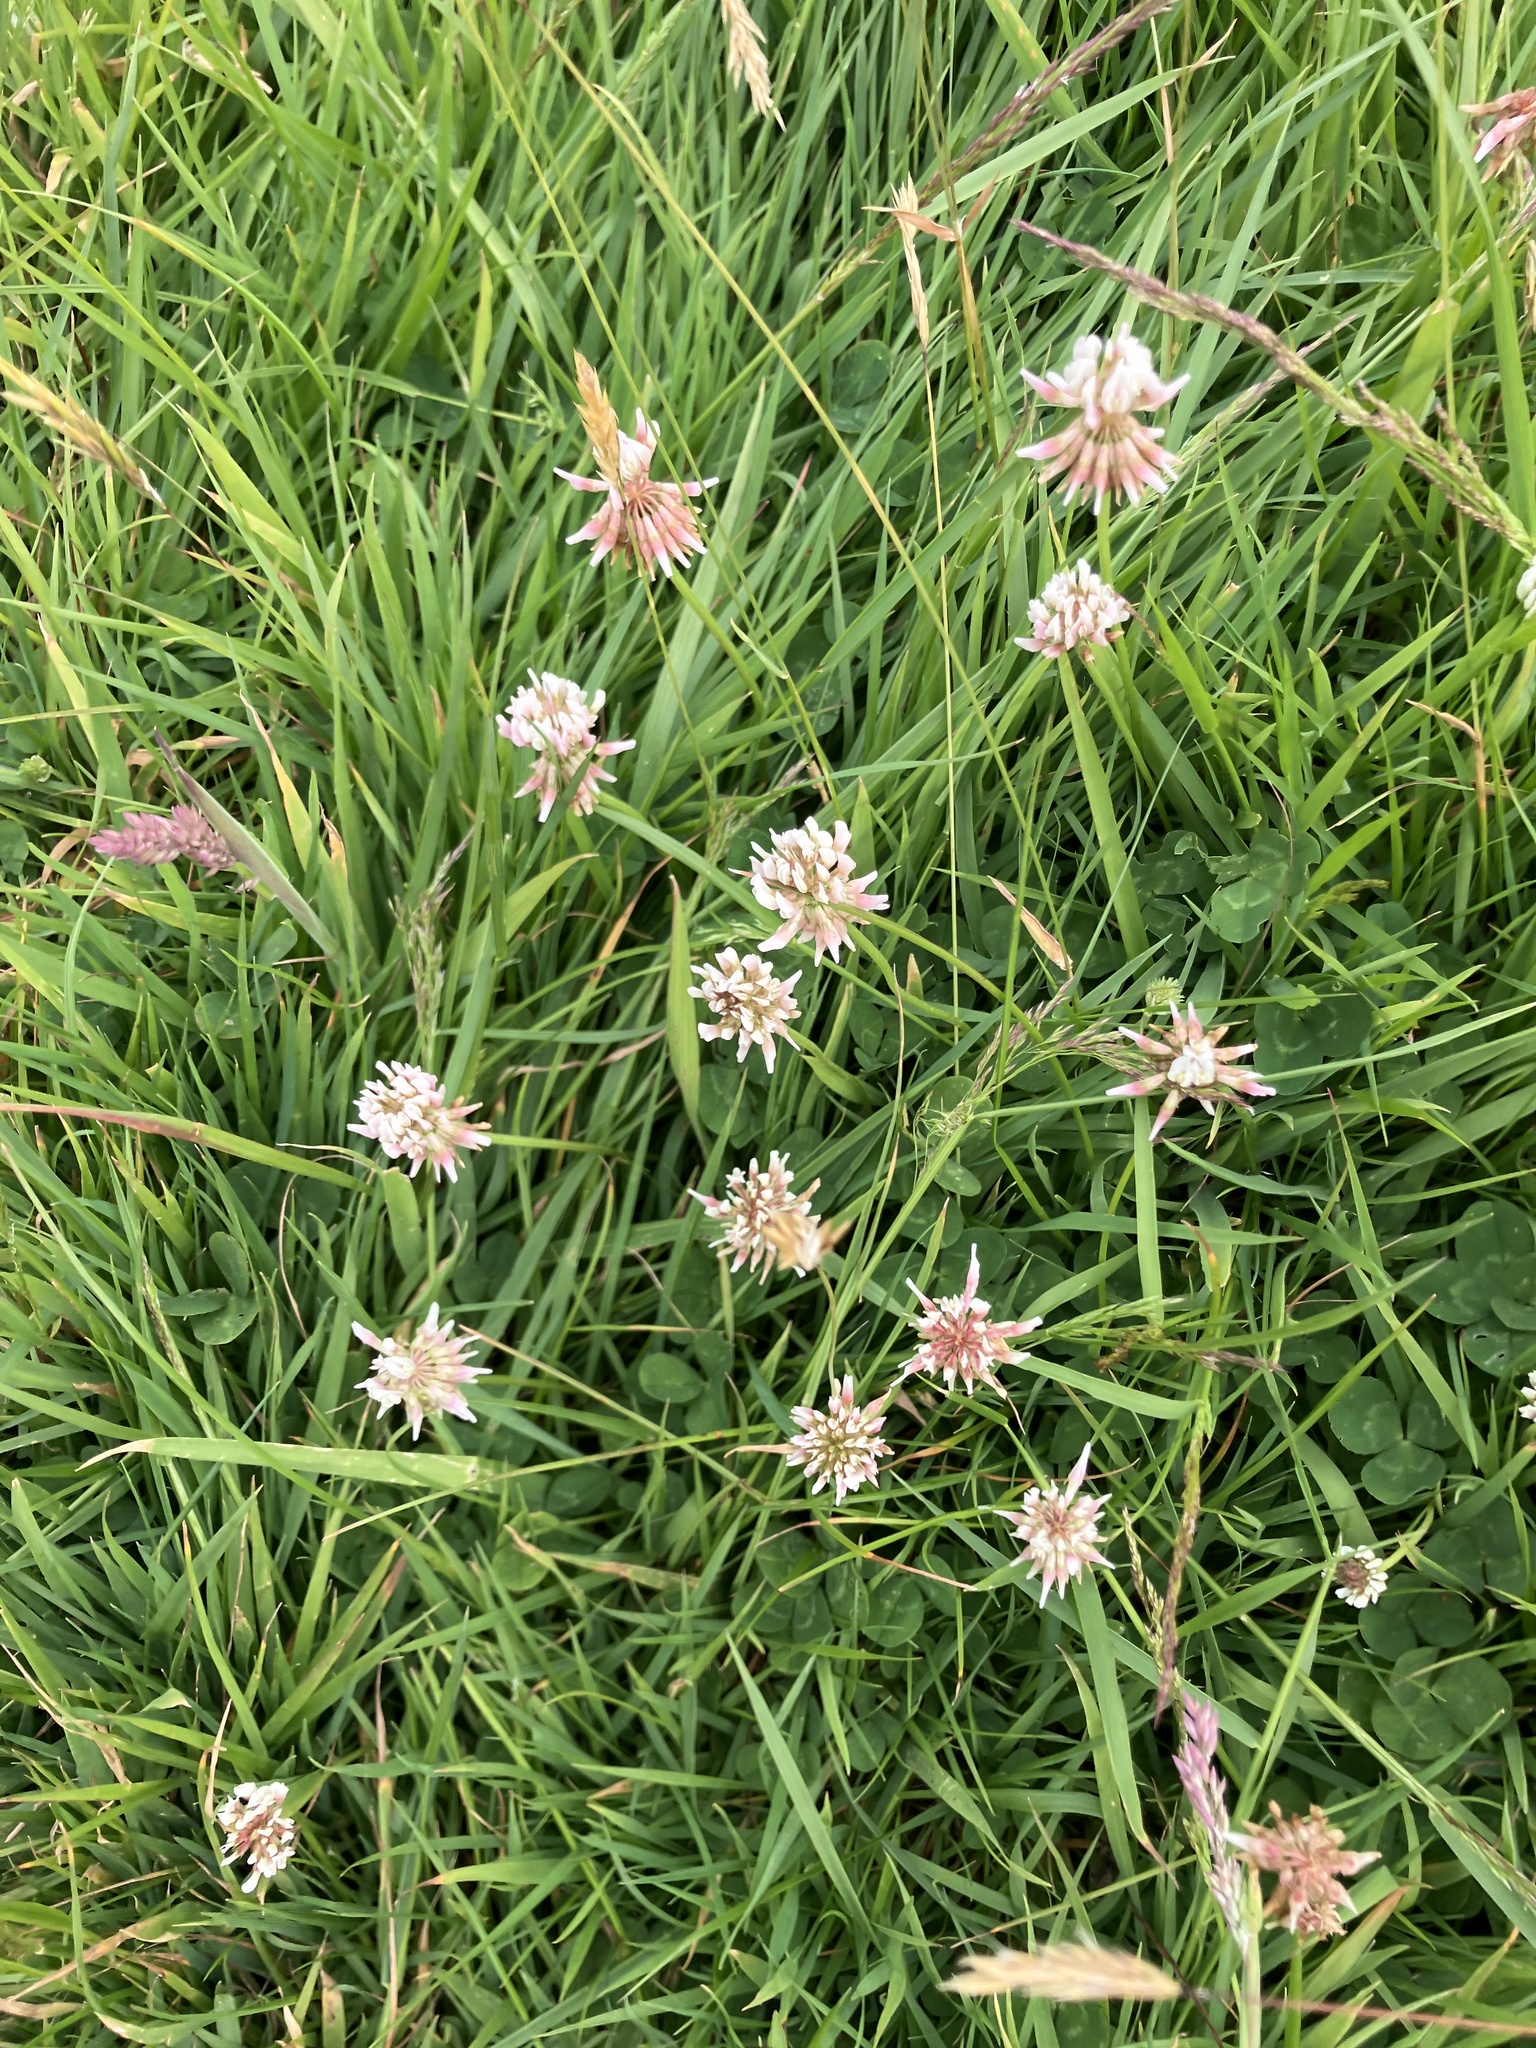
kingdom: Plantae
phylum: Tracheophyta
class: Magnoliopsida
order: Fabales
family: Fabaceae
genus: Trifolium
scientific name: Trifolium repens
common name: White clover
